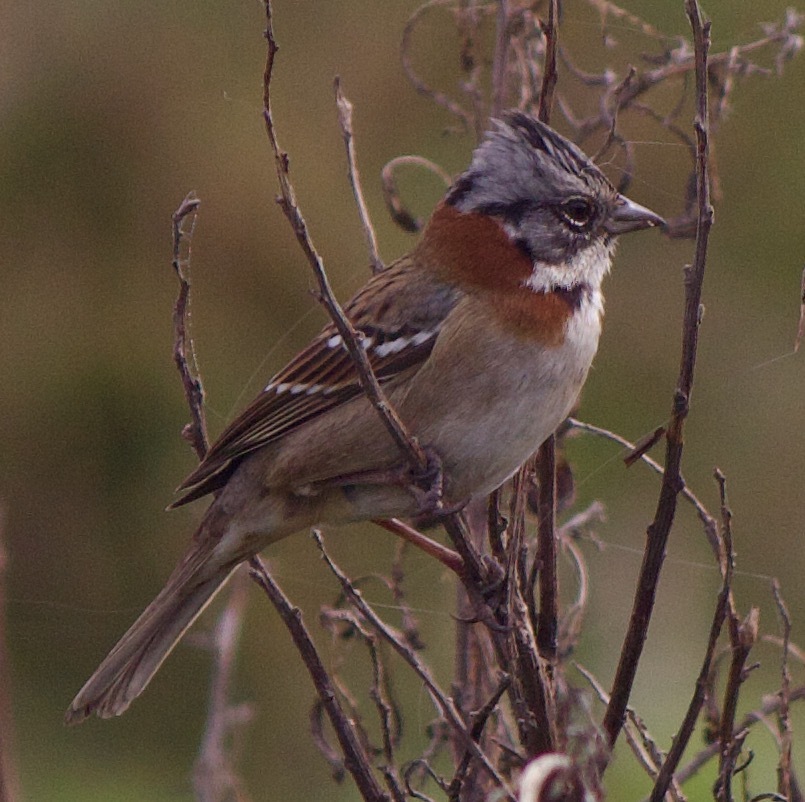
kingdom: Animalia
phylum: Chordata
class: Aves
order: Passeriformes
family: Passerellidae
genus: Zonotrichia
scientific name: Zonotrichia capensis
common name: Rufous-collared sparrow
